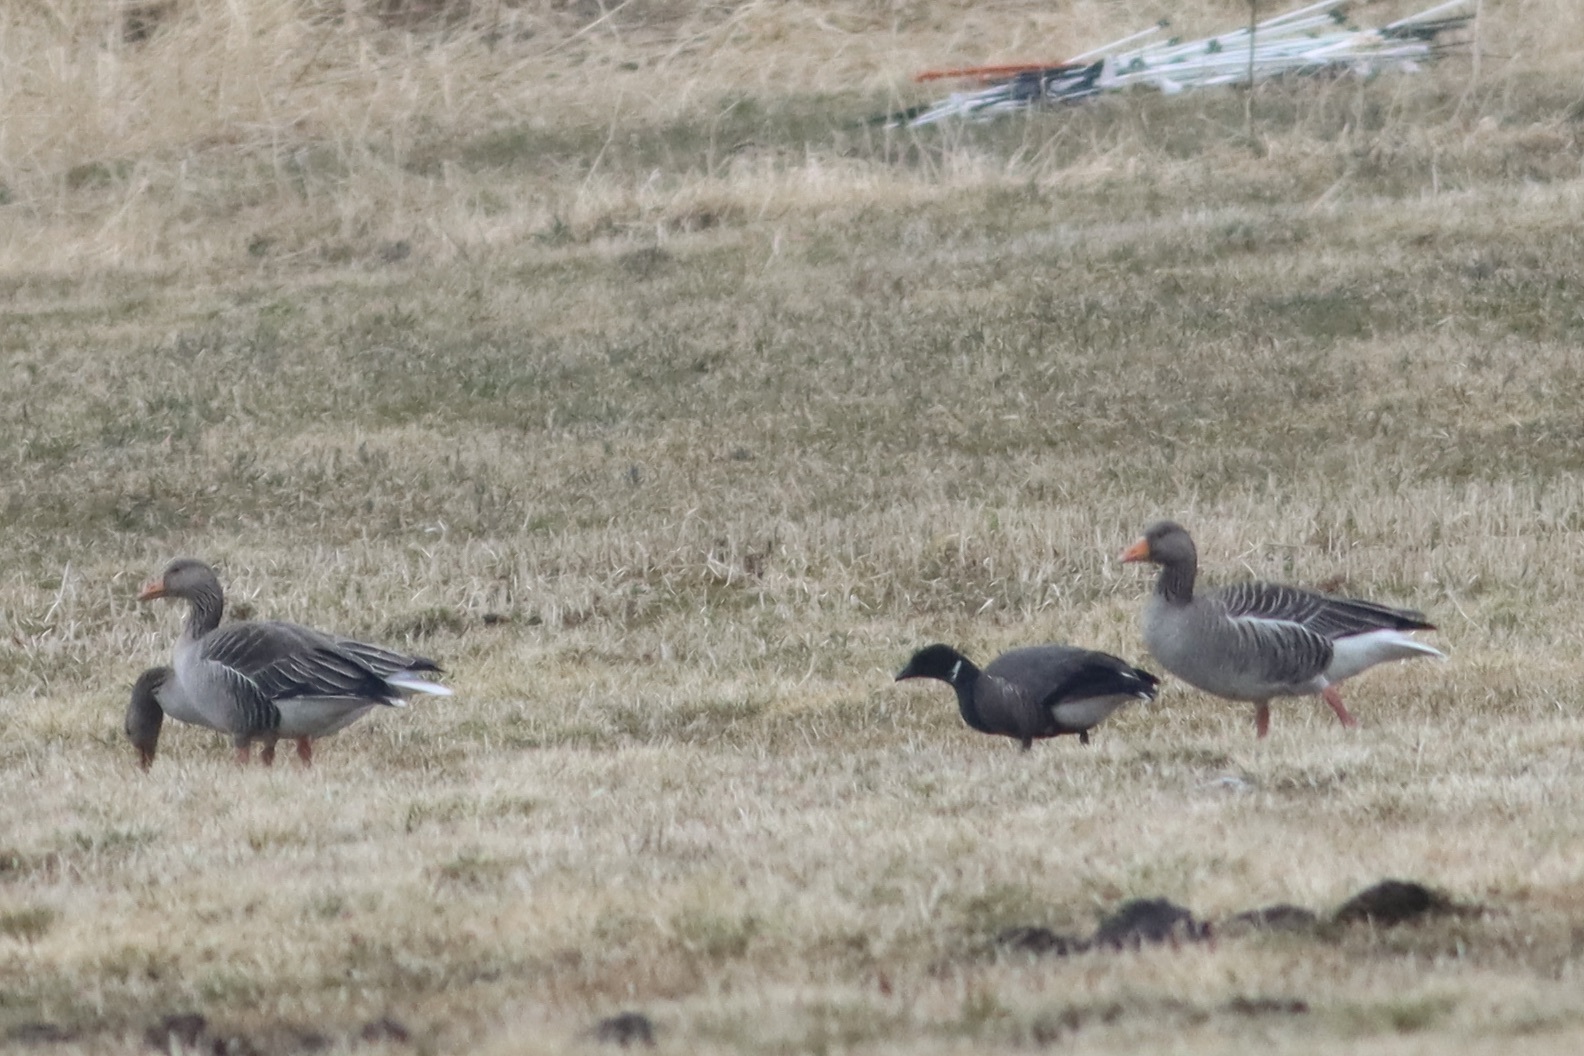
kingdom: Animalia
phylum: Chordata
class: Aves
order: Anseriformes
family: Anatidae
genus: Branta
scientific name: Branta bernicla
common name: Brant goose
